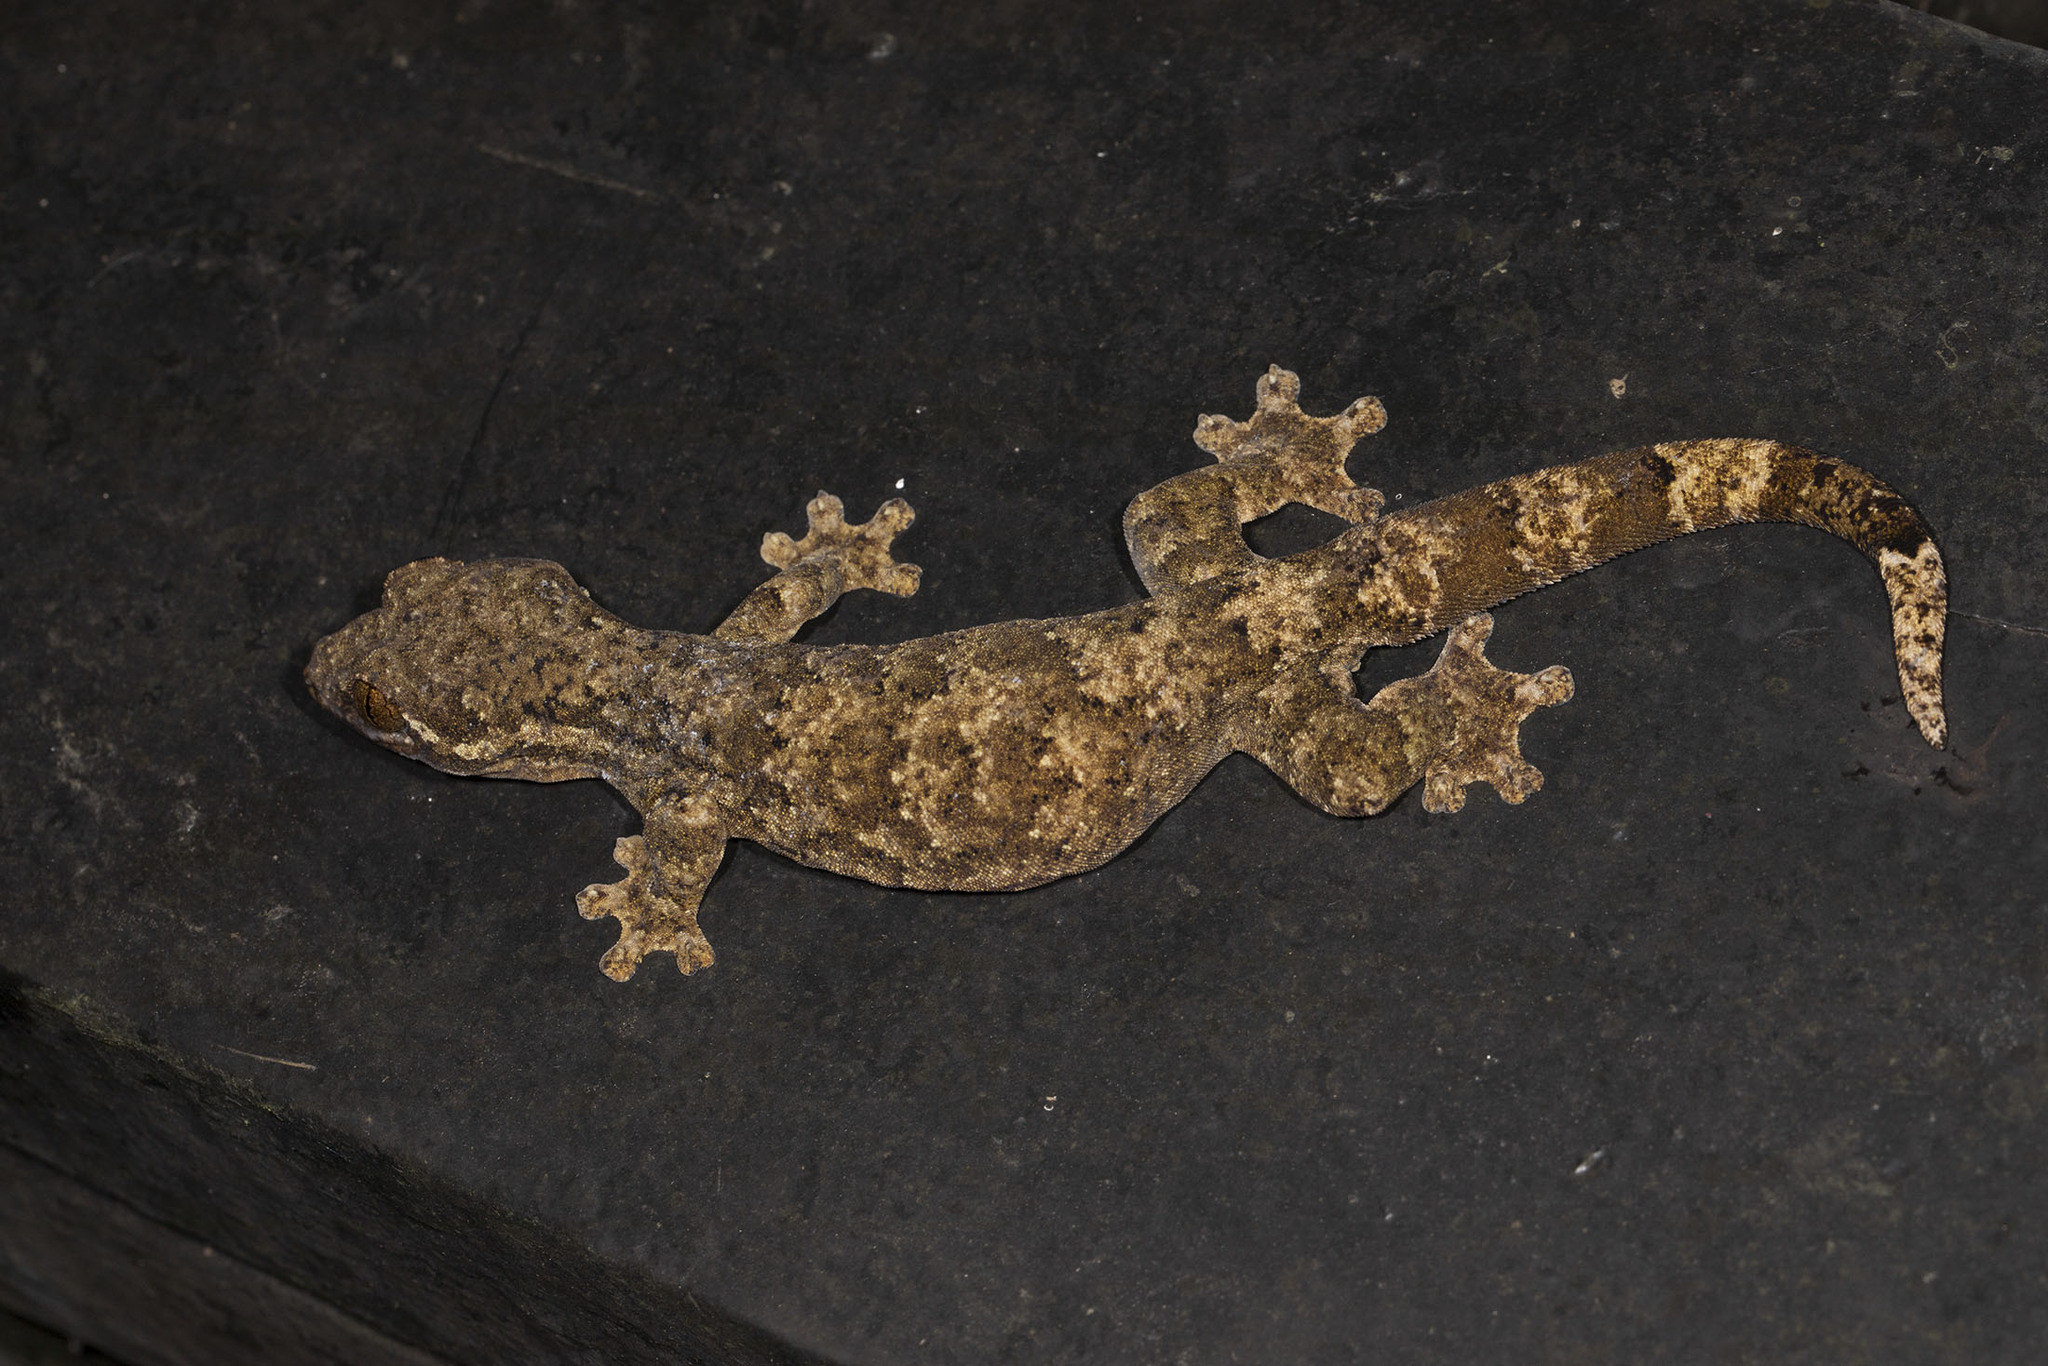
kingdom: Animalia
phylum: Chordata
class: Squamata
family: Phyllodactylidae
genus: Thecadactylus
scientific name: Thecadactylus rapicauda
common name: Turnip-tailed gecko
